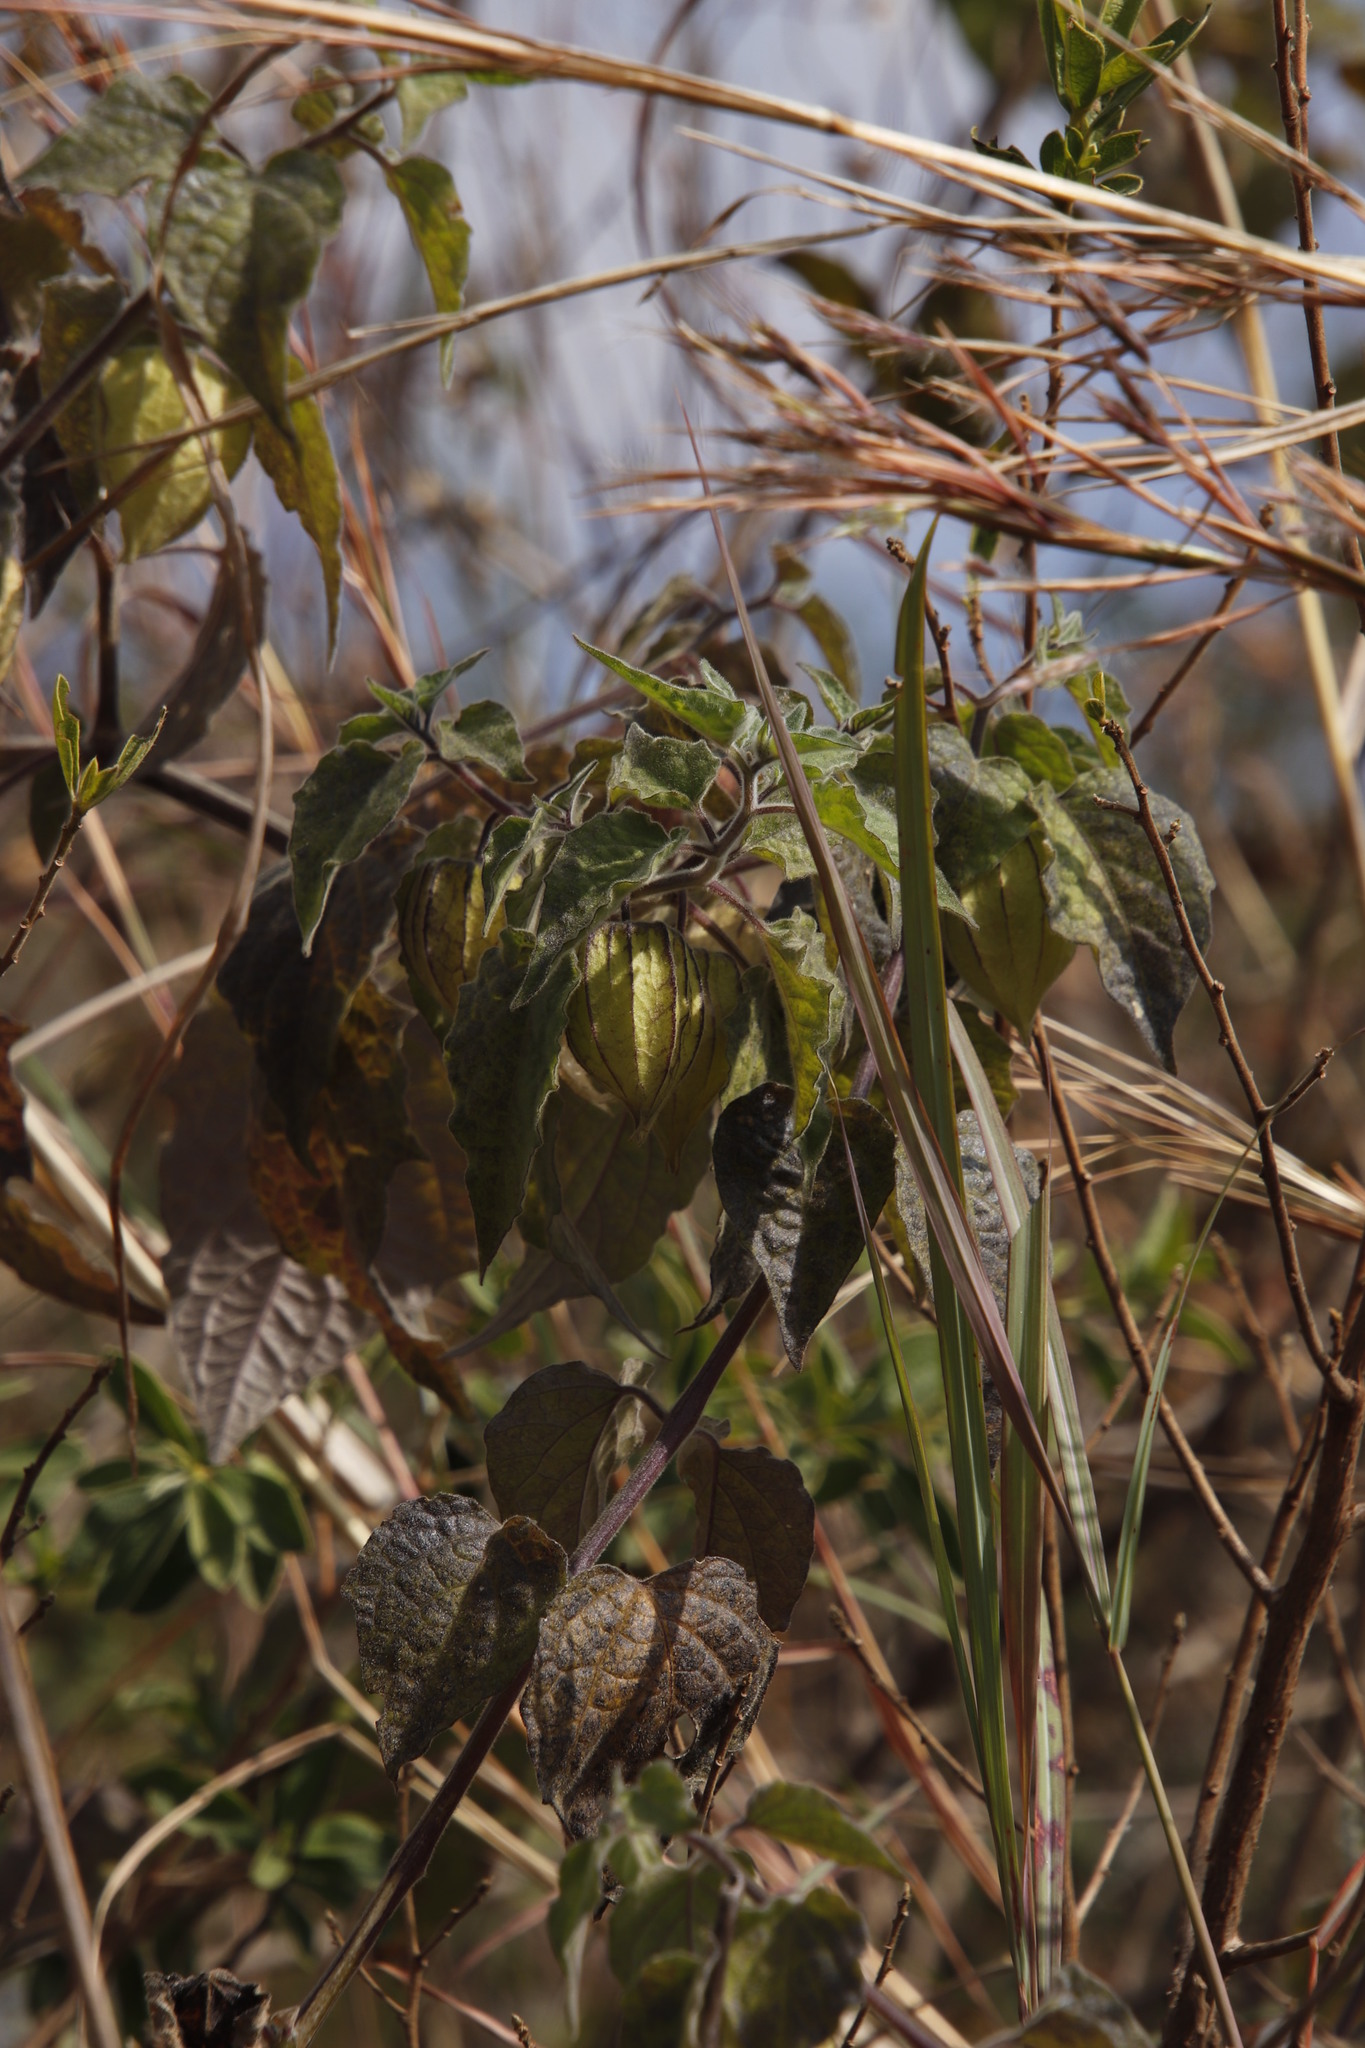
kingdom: Plantae
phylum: Tracheophyta
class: Magnoliopsida
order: Solanales
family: Solanaceae
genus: Physalis
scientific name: Physalis peruviana
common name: Cape-gooseberry
